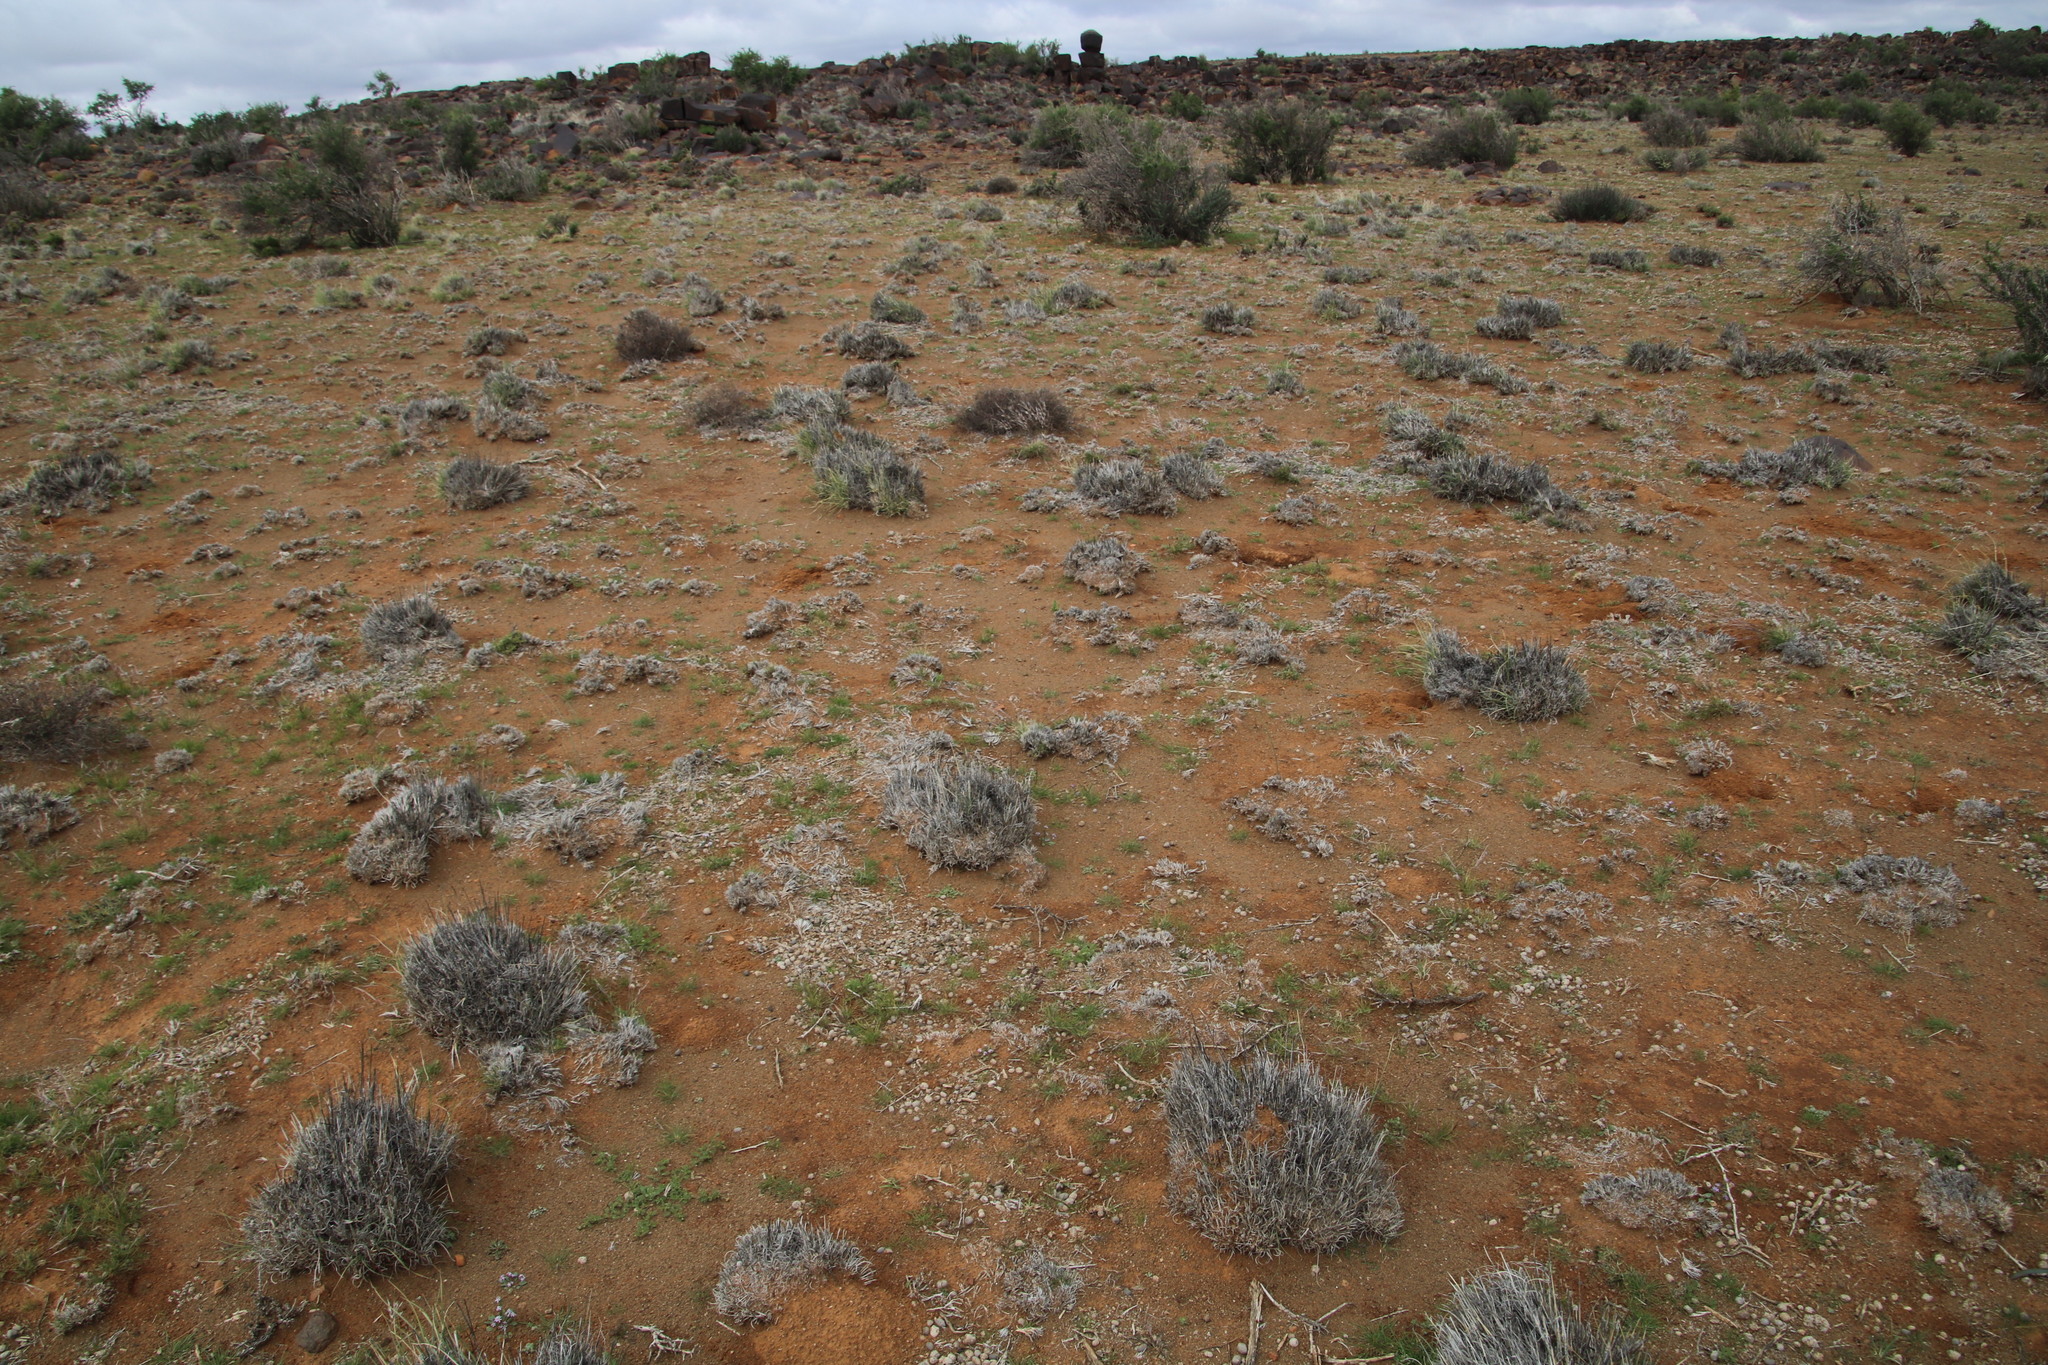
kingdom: Plantae
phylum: Tracheophyta
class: Liliopsida
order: Poales
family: Poaceae
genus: Stipagrostis
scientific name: Stipagrostis ciliata
